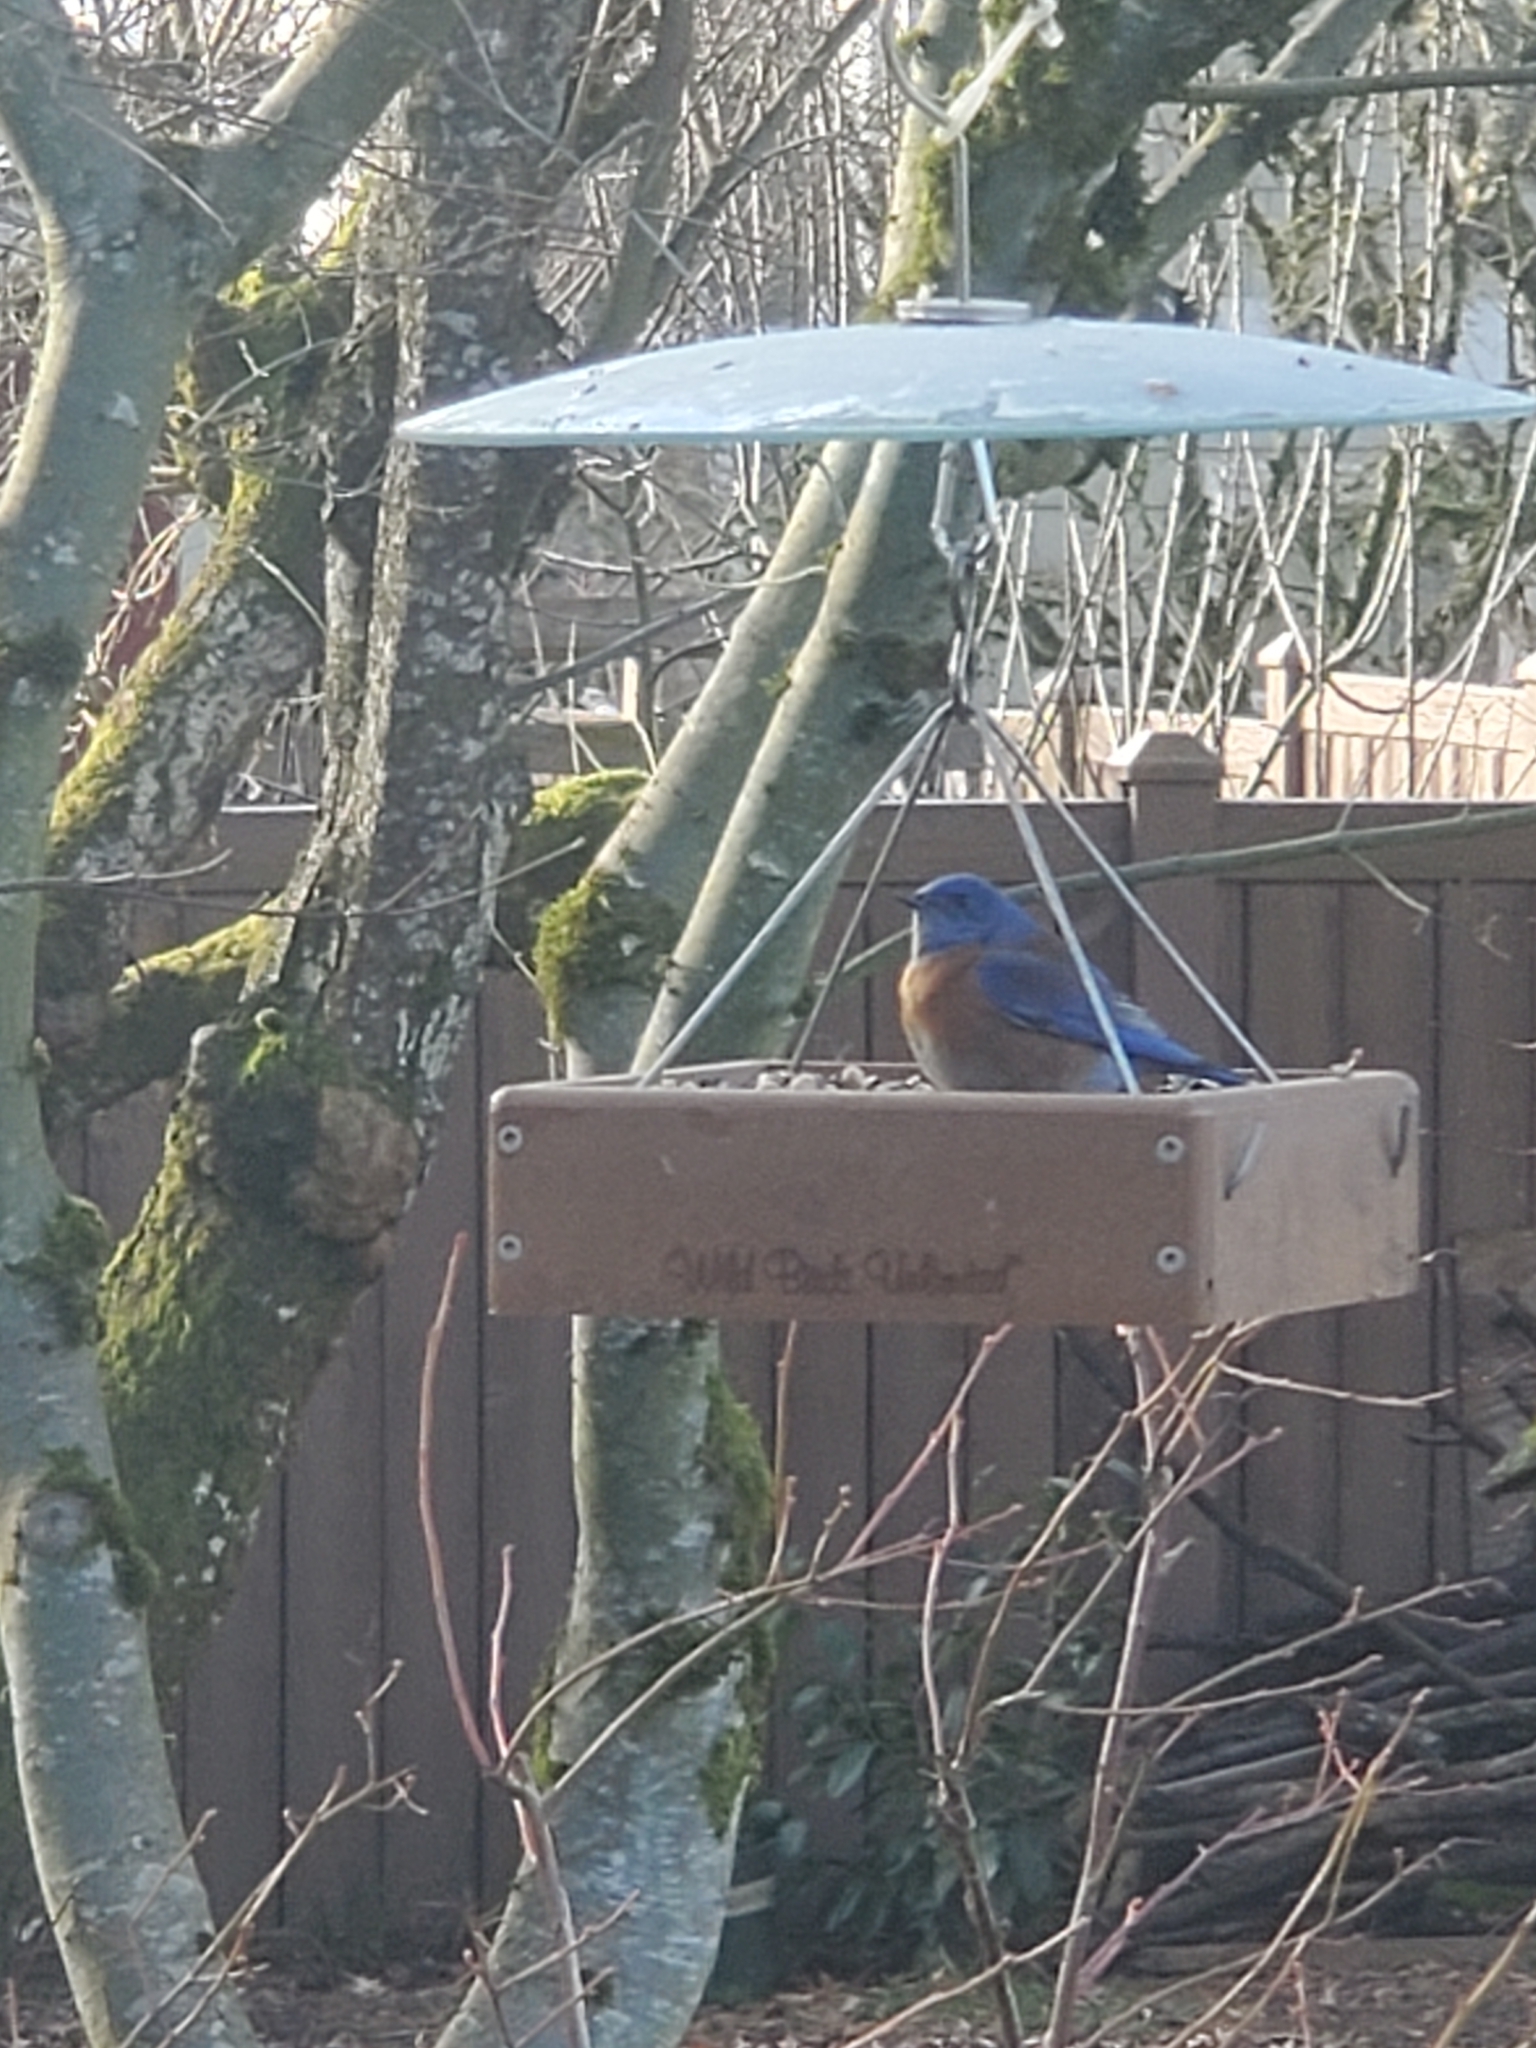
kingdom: Animalia
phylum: Chordata
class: Aves
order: Passeriformes
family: Turdidae
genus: Sialia
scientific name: Sialia mexicana
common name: Western bluebird
